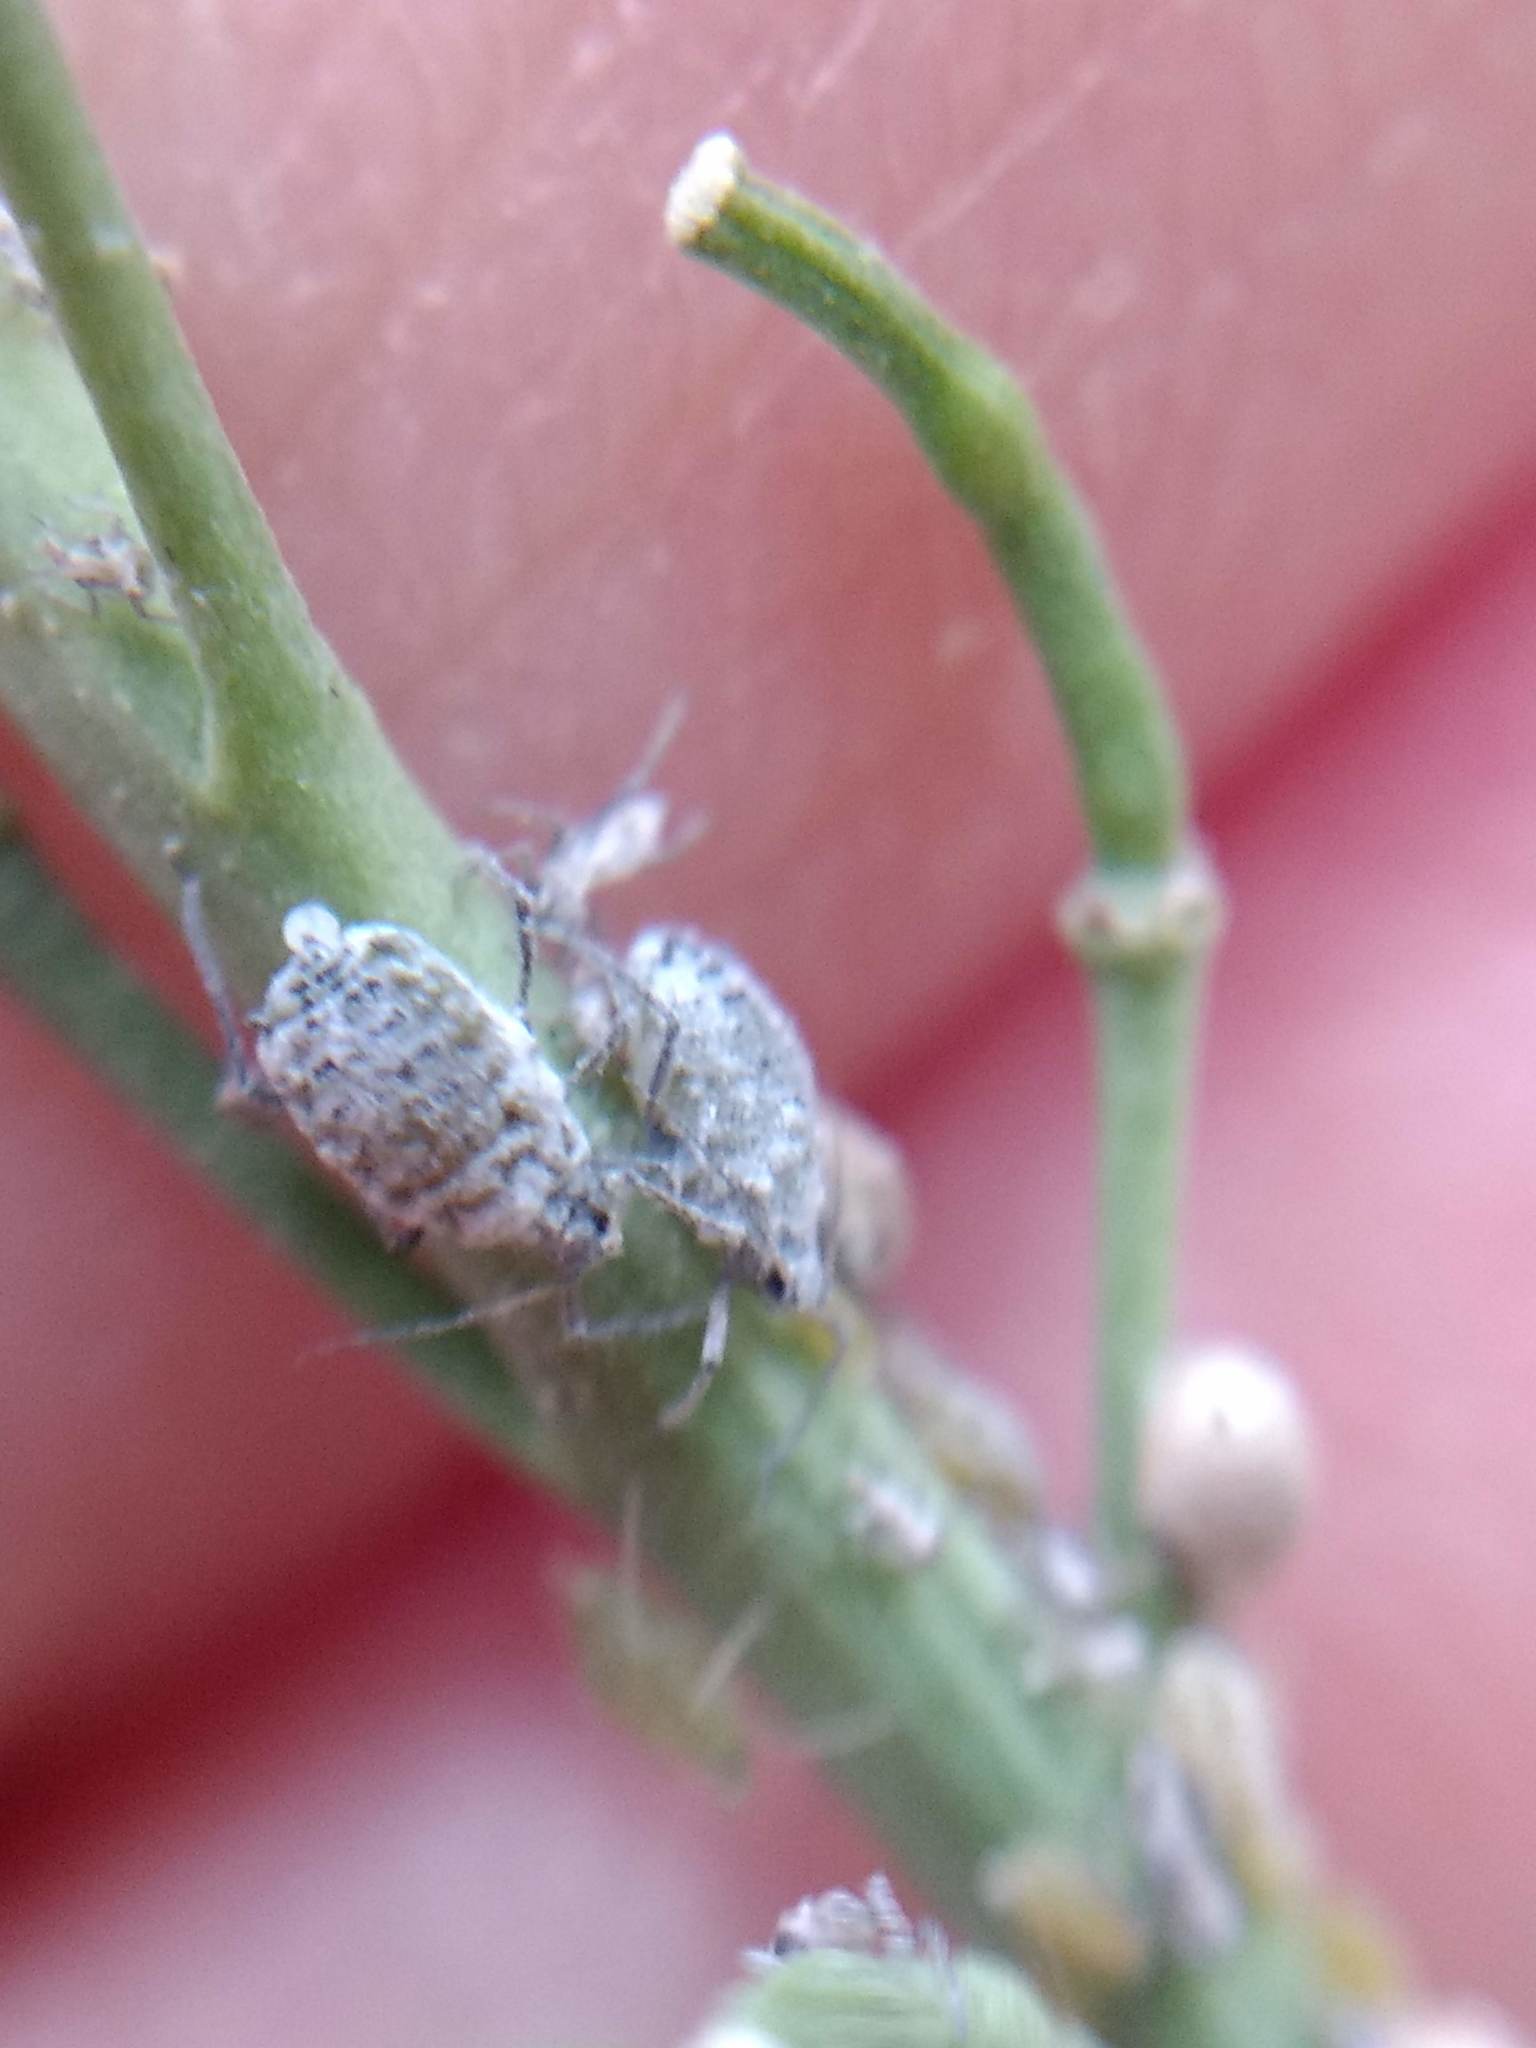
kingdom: Animalia
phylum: Arthropoda
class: Insecta
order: Hemiptera
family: Aphididae
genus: Brevicoryne
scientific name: Brevicoryne brassicae
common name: Cabbage aphid
